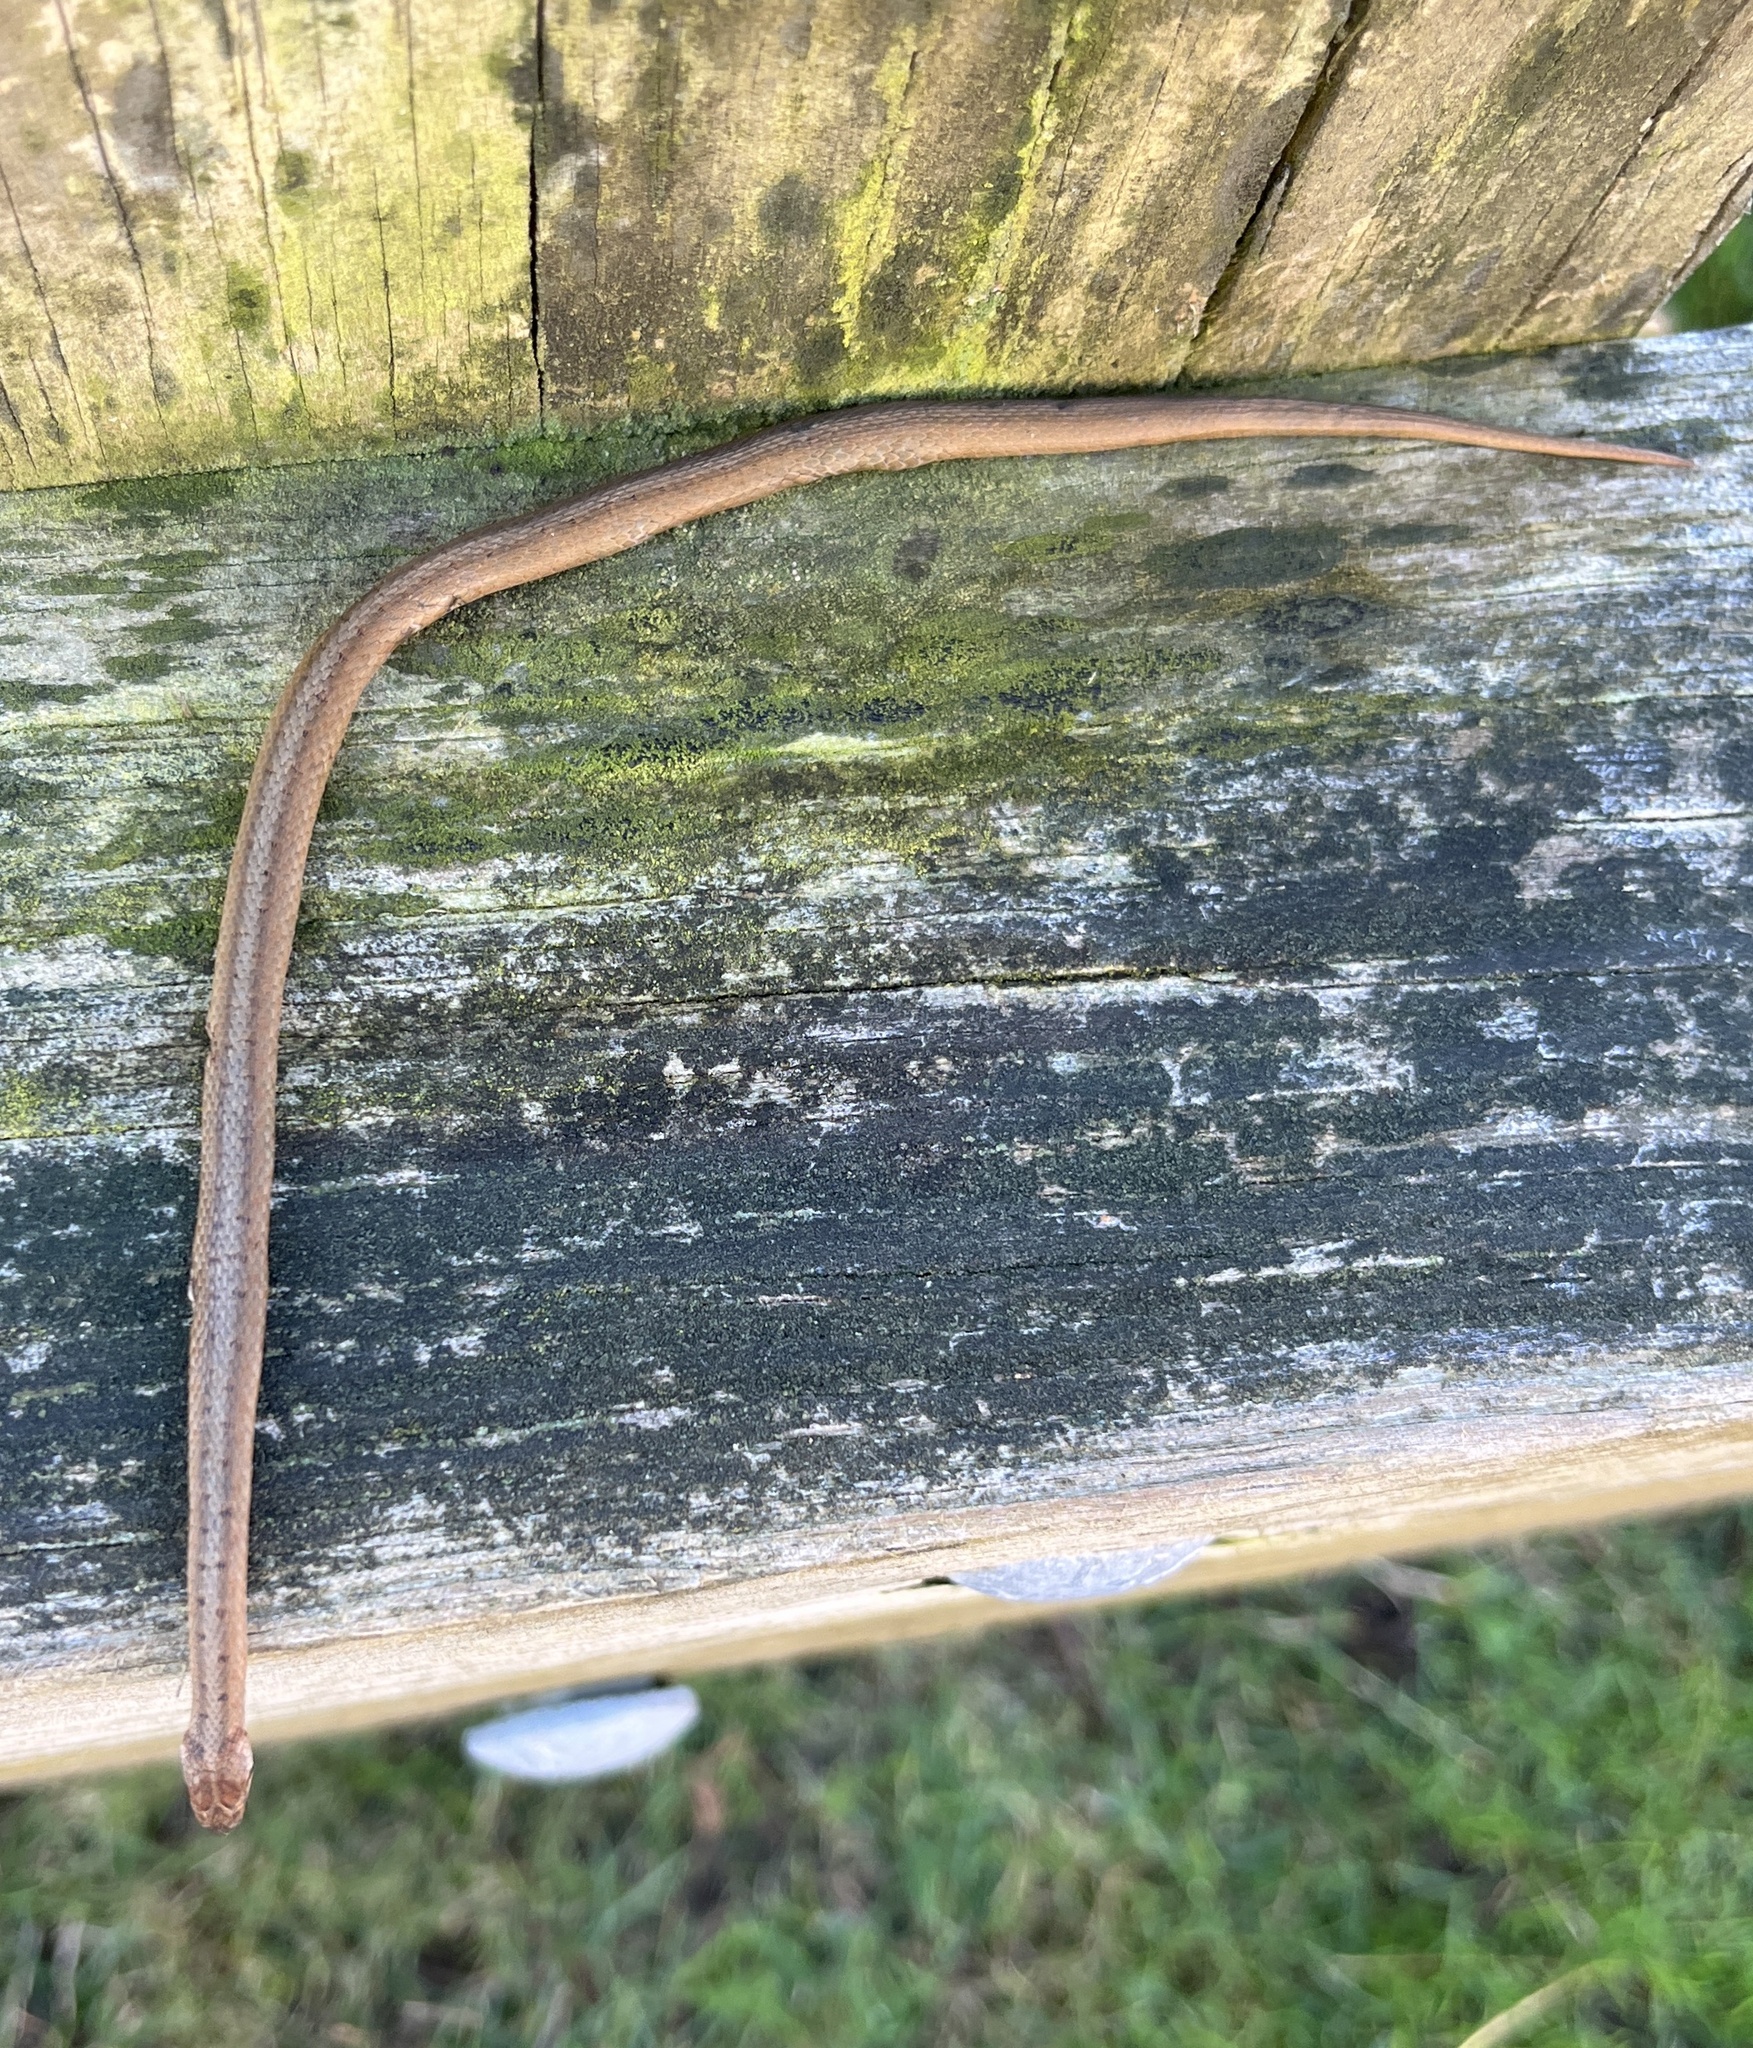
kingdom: Animalia
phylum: Chordata
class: Squamata
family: Colubridae
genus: Storeria
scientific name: Storeria dekayi
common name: (dekay’s) brown snake
